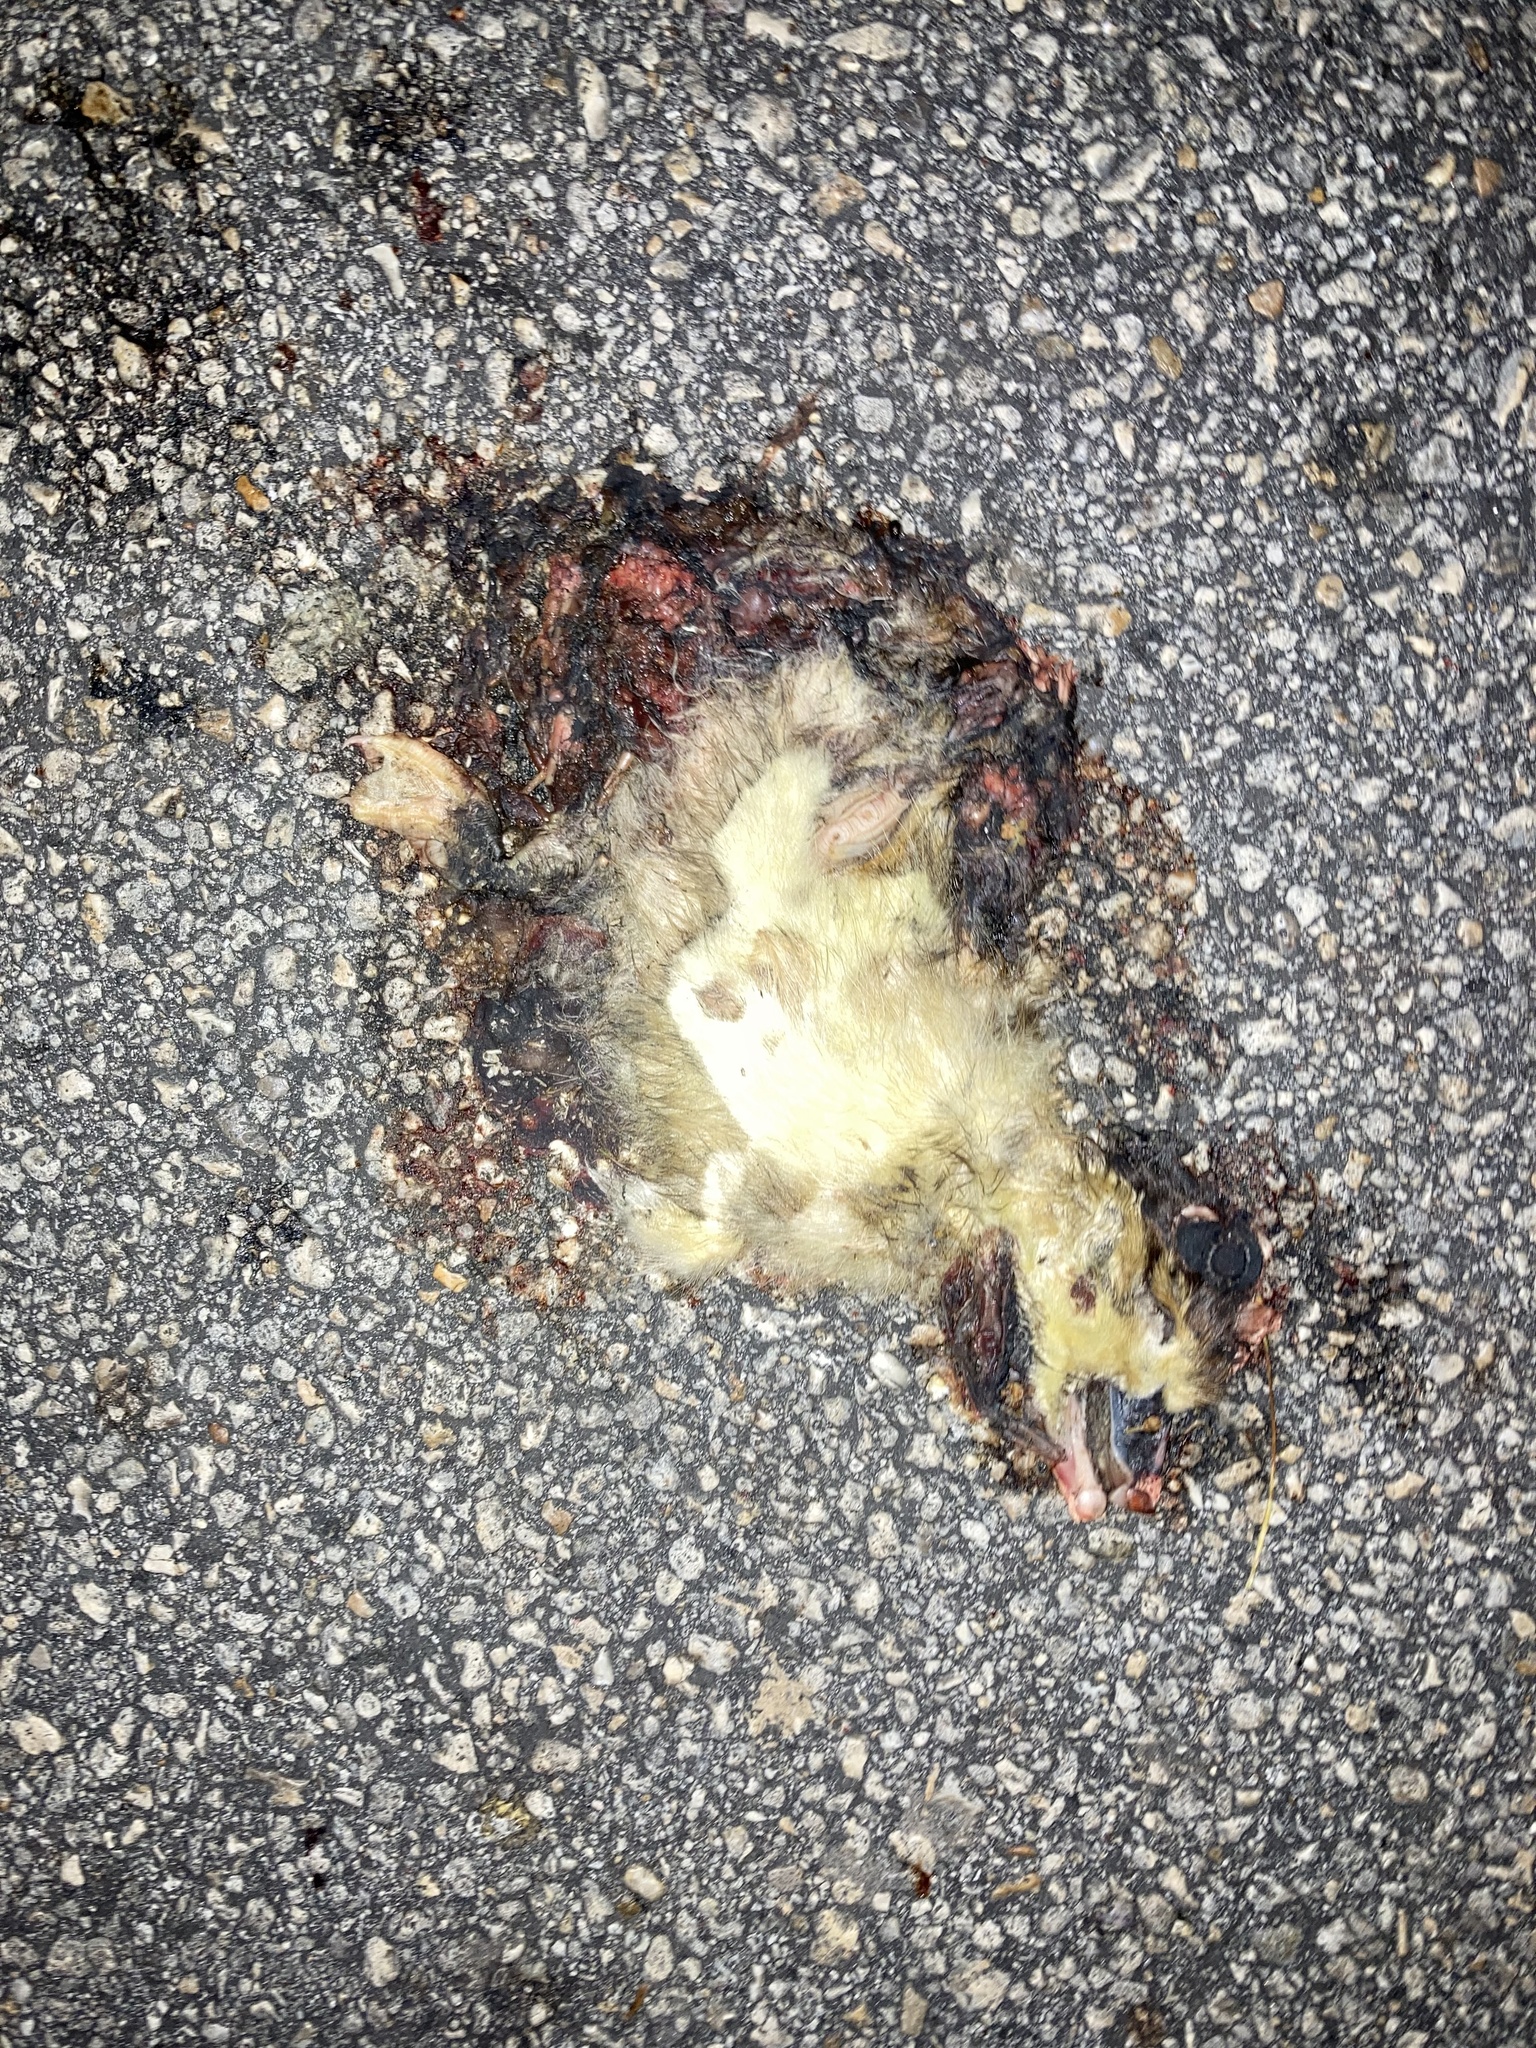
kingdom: Animalia
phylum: Chordata
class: Aves
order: Anseriformes
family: Anatidae
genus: Cairina
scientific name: Cairina moschata
